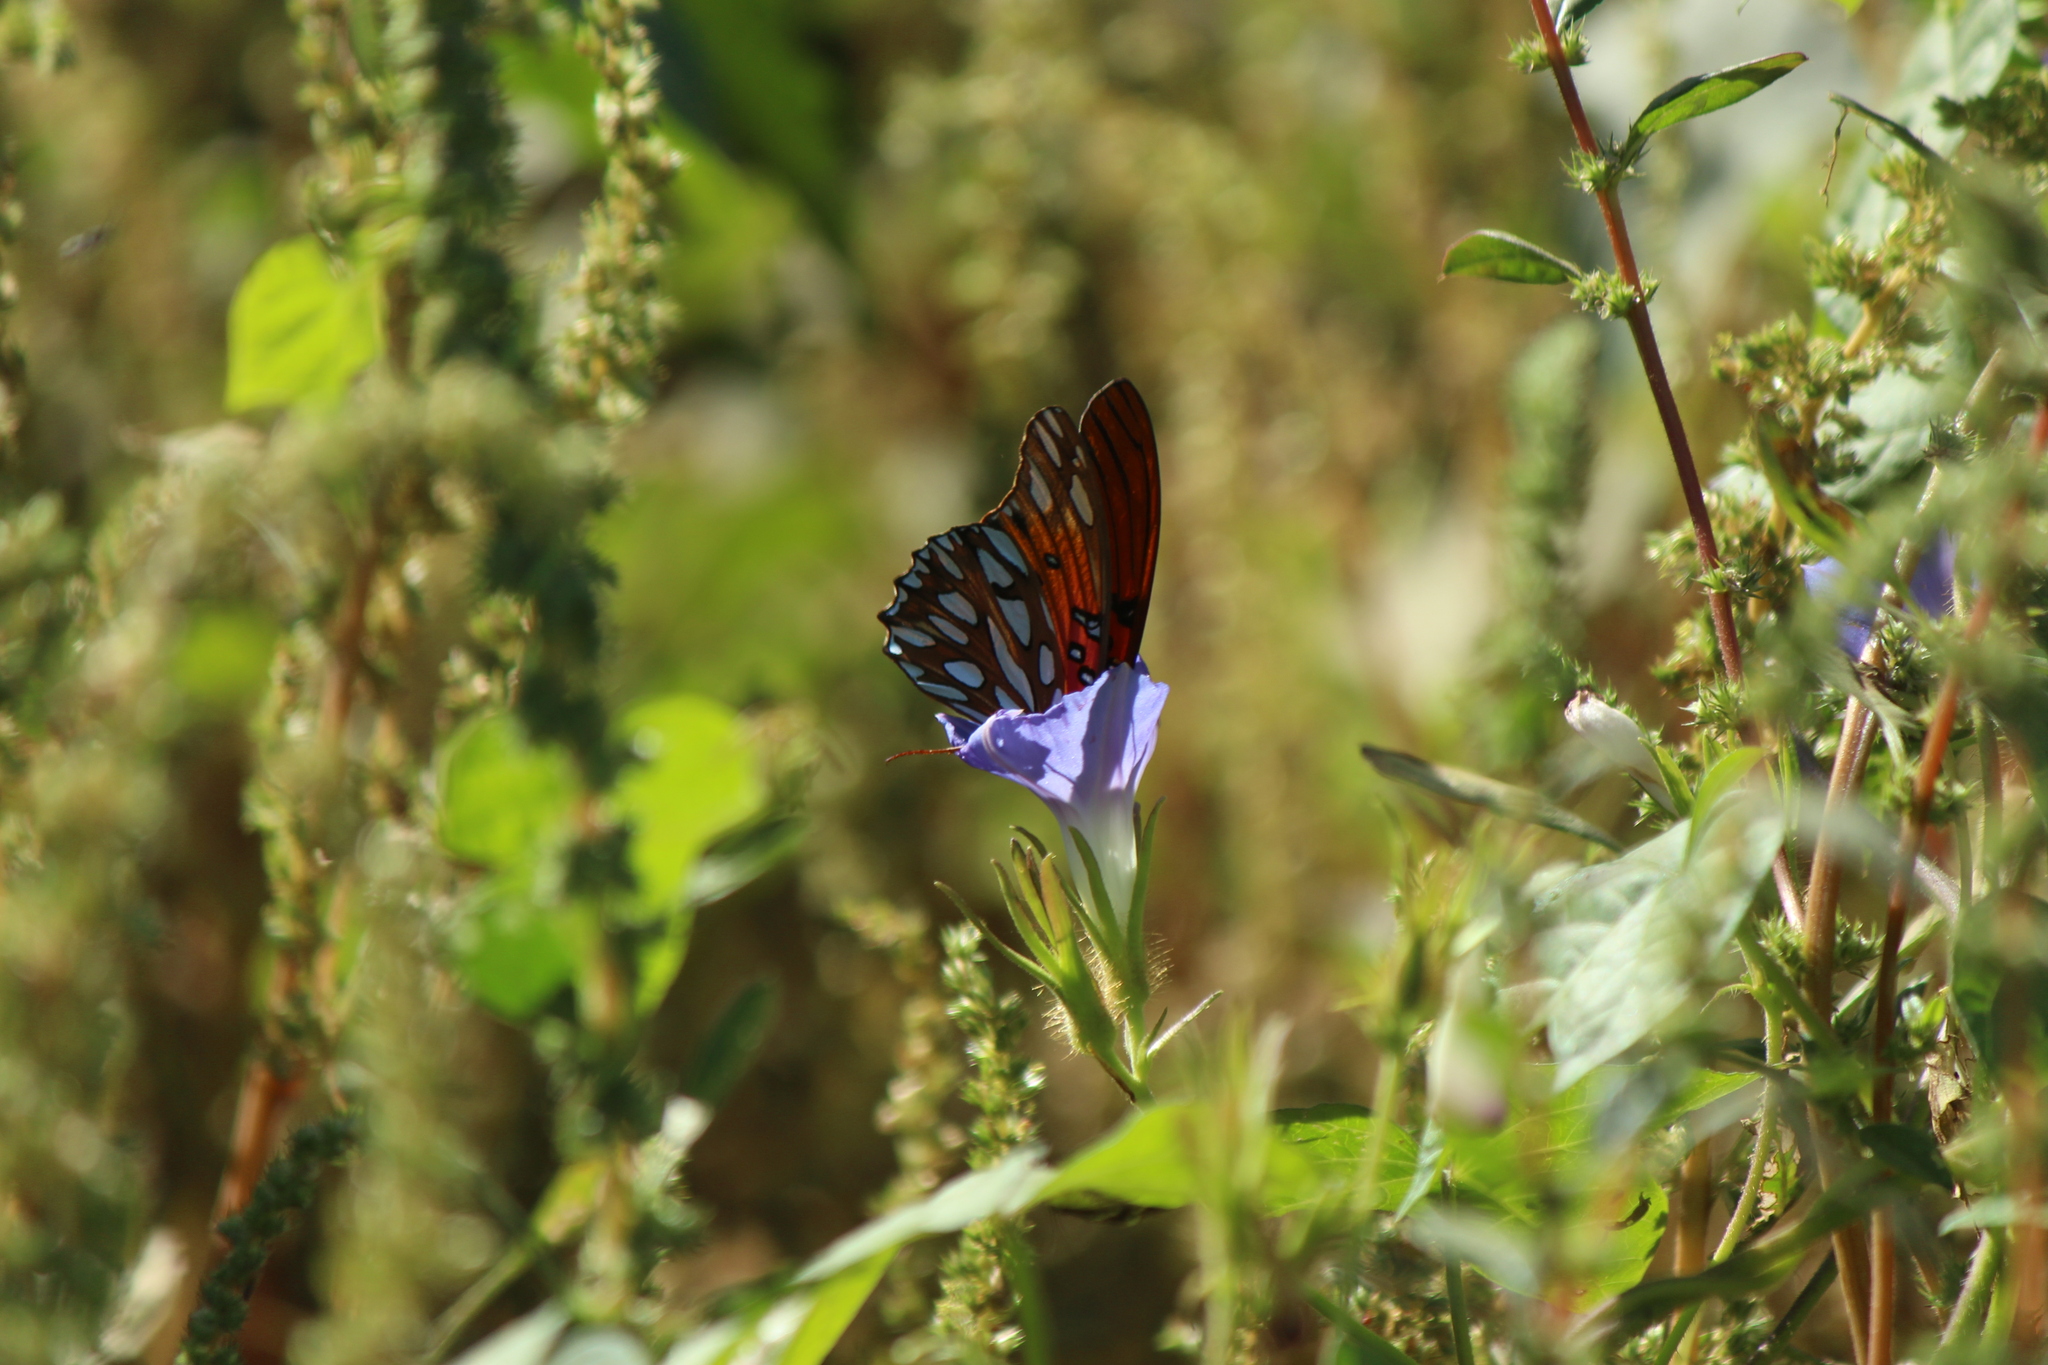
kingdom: Animalia
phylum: Arthropoda
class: Insecta
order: Lepidoptera
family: Nymphalidae
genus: Dione
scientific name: Dione vanillae
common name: Gulf fritillary
